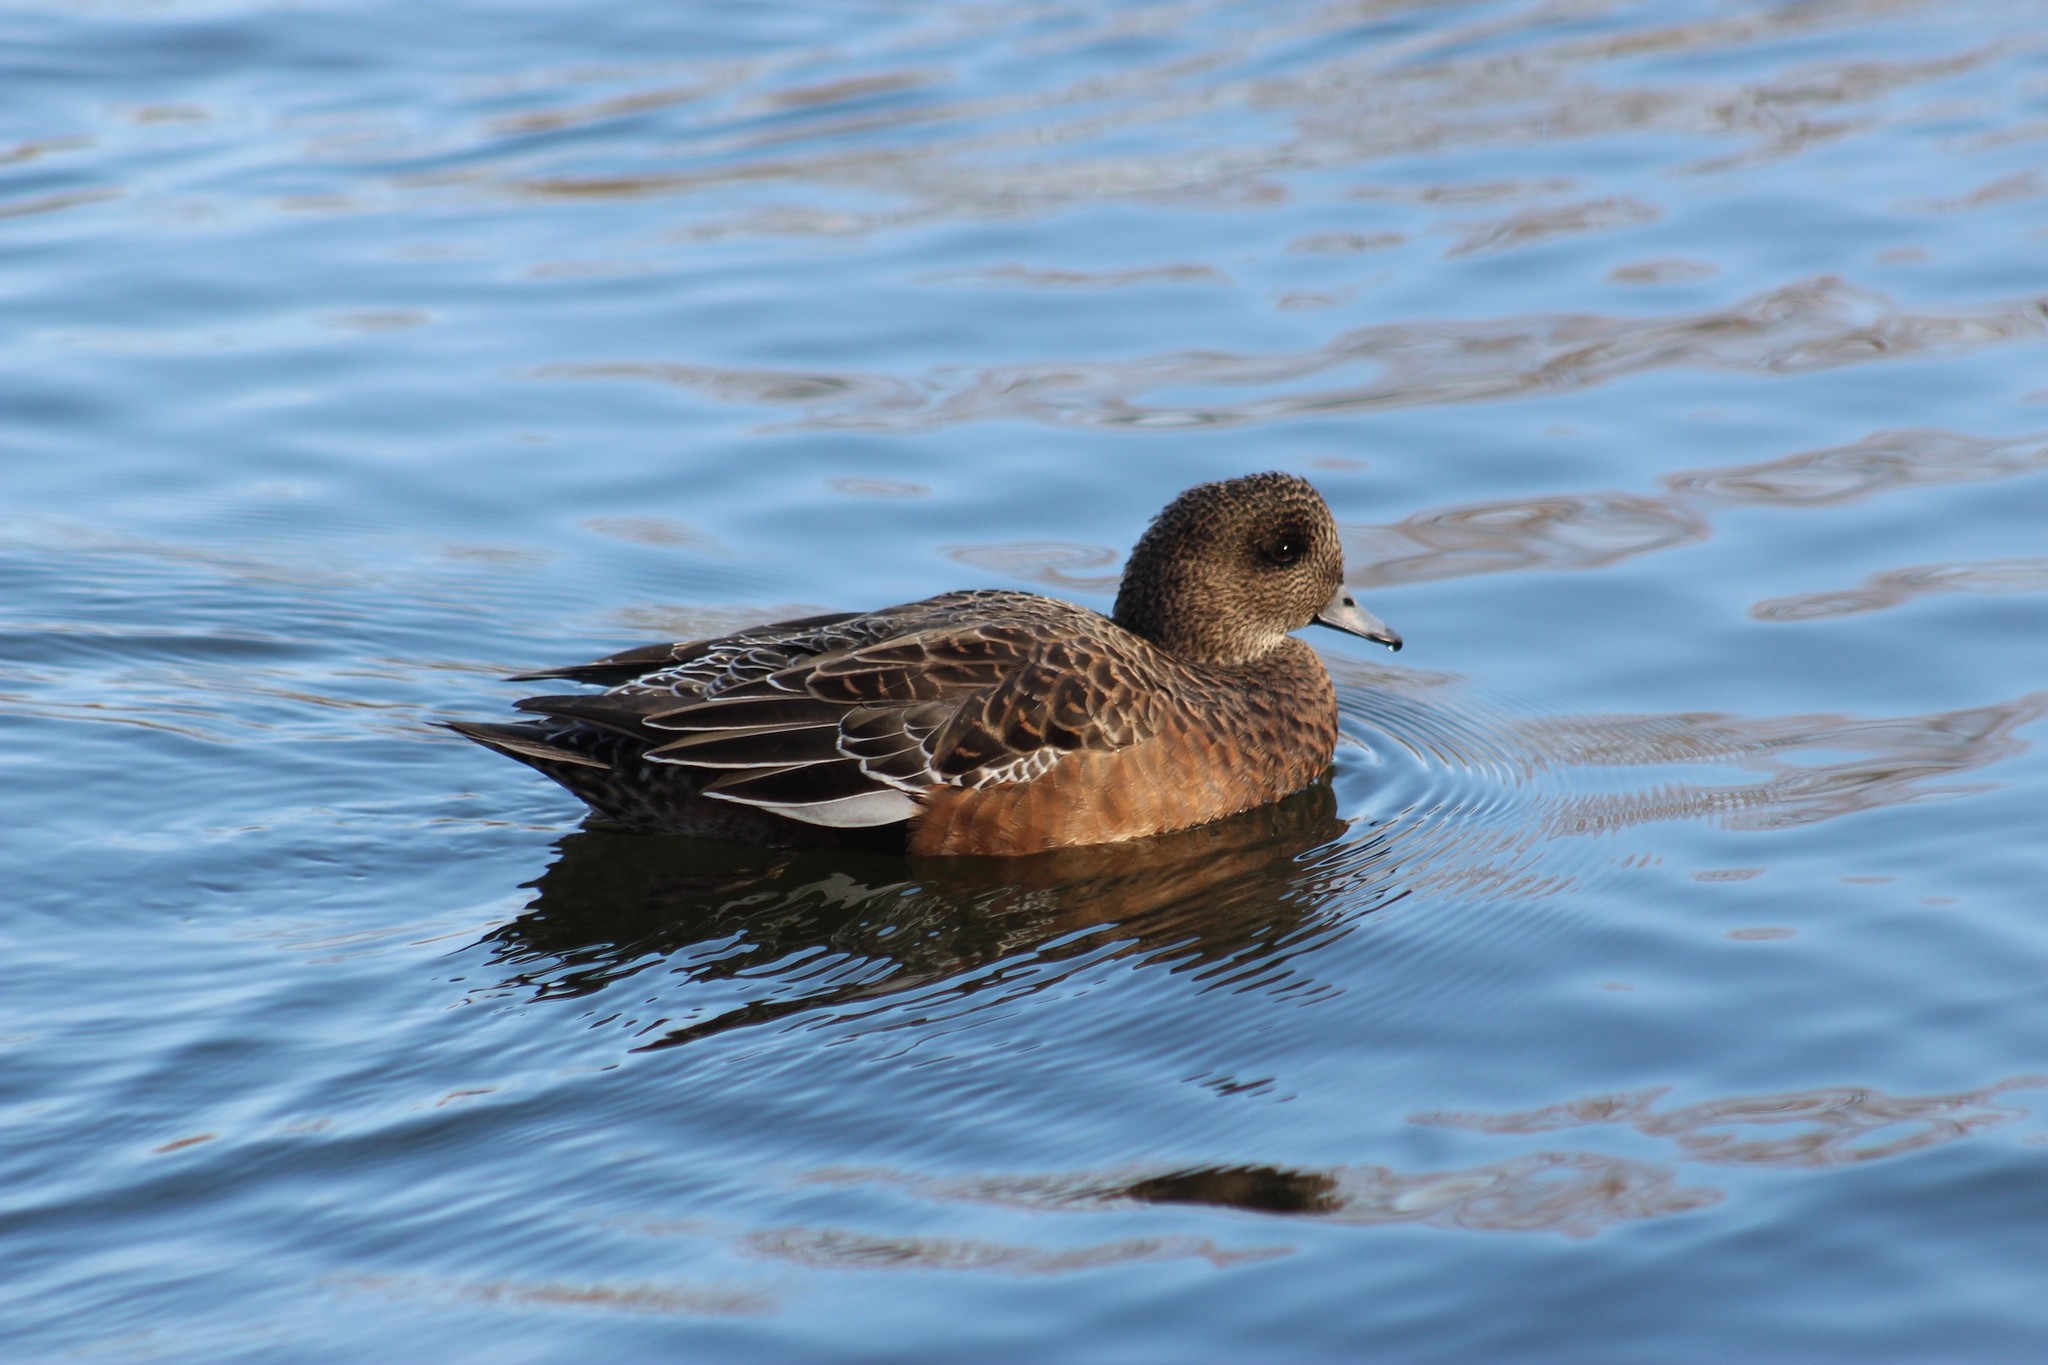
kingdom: Animalia
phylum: Chordata
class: Aves
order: Anseriformes
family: Anatidae
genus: Mareca
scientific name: Mareca americana
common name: American wigeon
